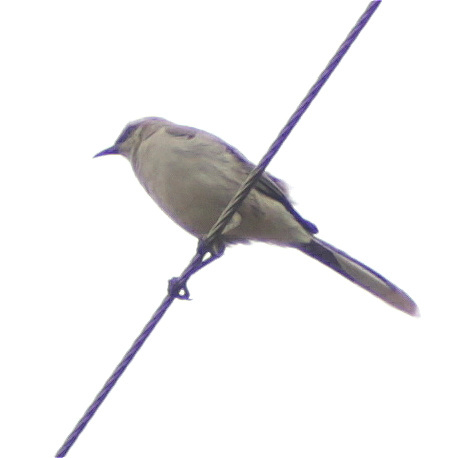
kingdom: Animalia
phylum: Chordata
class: Aves
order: Passeriformes
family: Mimidae
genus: Mimus
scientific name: Mimus gilvus
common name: Tropical mockingbird
